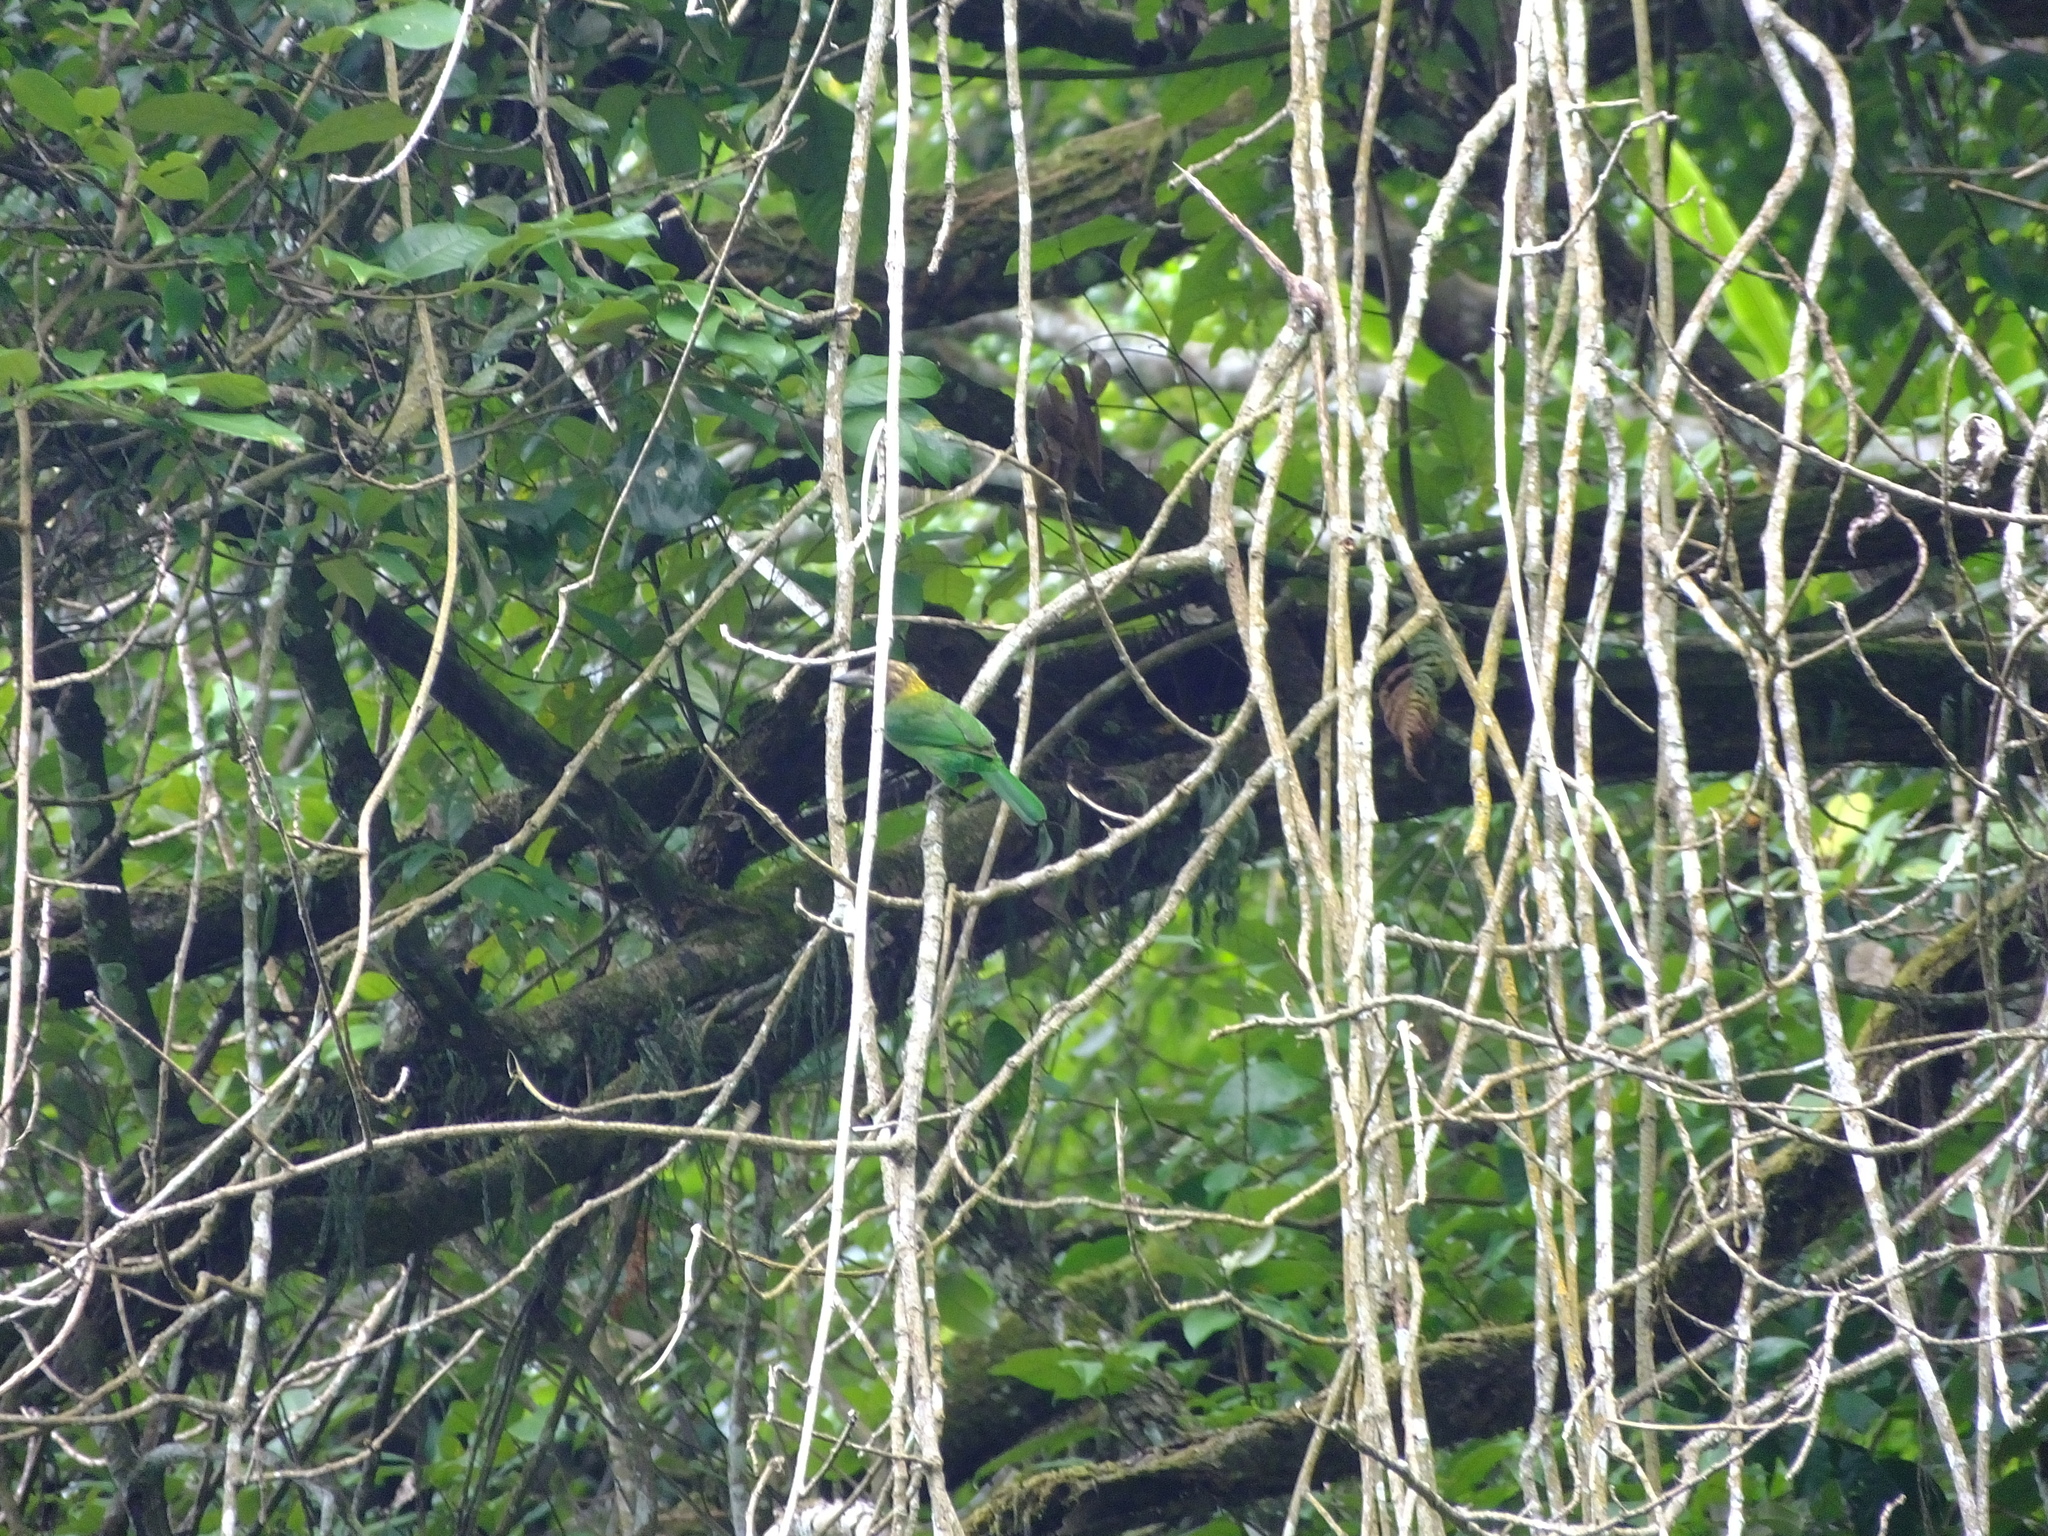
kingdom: Animalia
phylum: Chordata
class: Aves
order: Piciformes
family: Megalaimidae
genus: Psilopogon
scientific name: Psilopogon corvinus
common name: Brown-throated barbet
